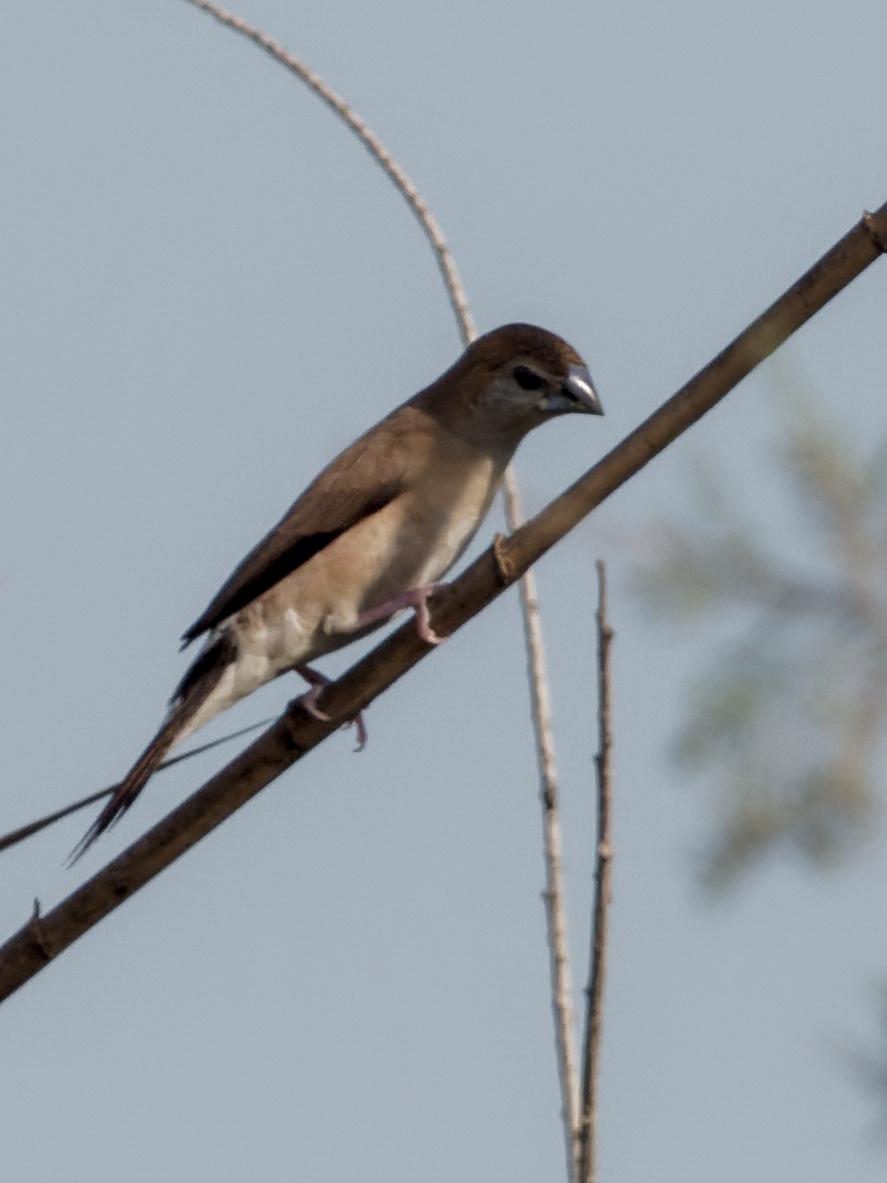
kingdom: Animalia
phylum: Chordata
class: Aves
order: Passeriformes
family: Estrildidae
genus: Euodice
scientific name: Euodice malabarica
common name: Indian silverbill
